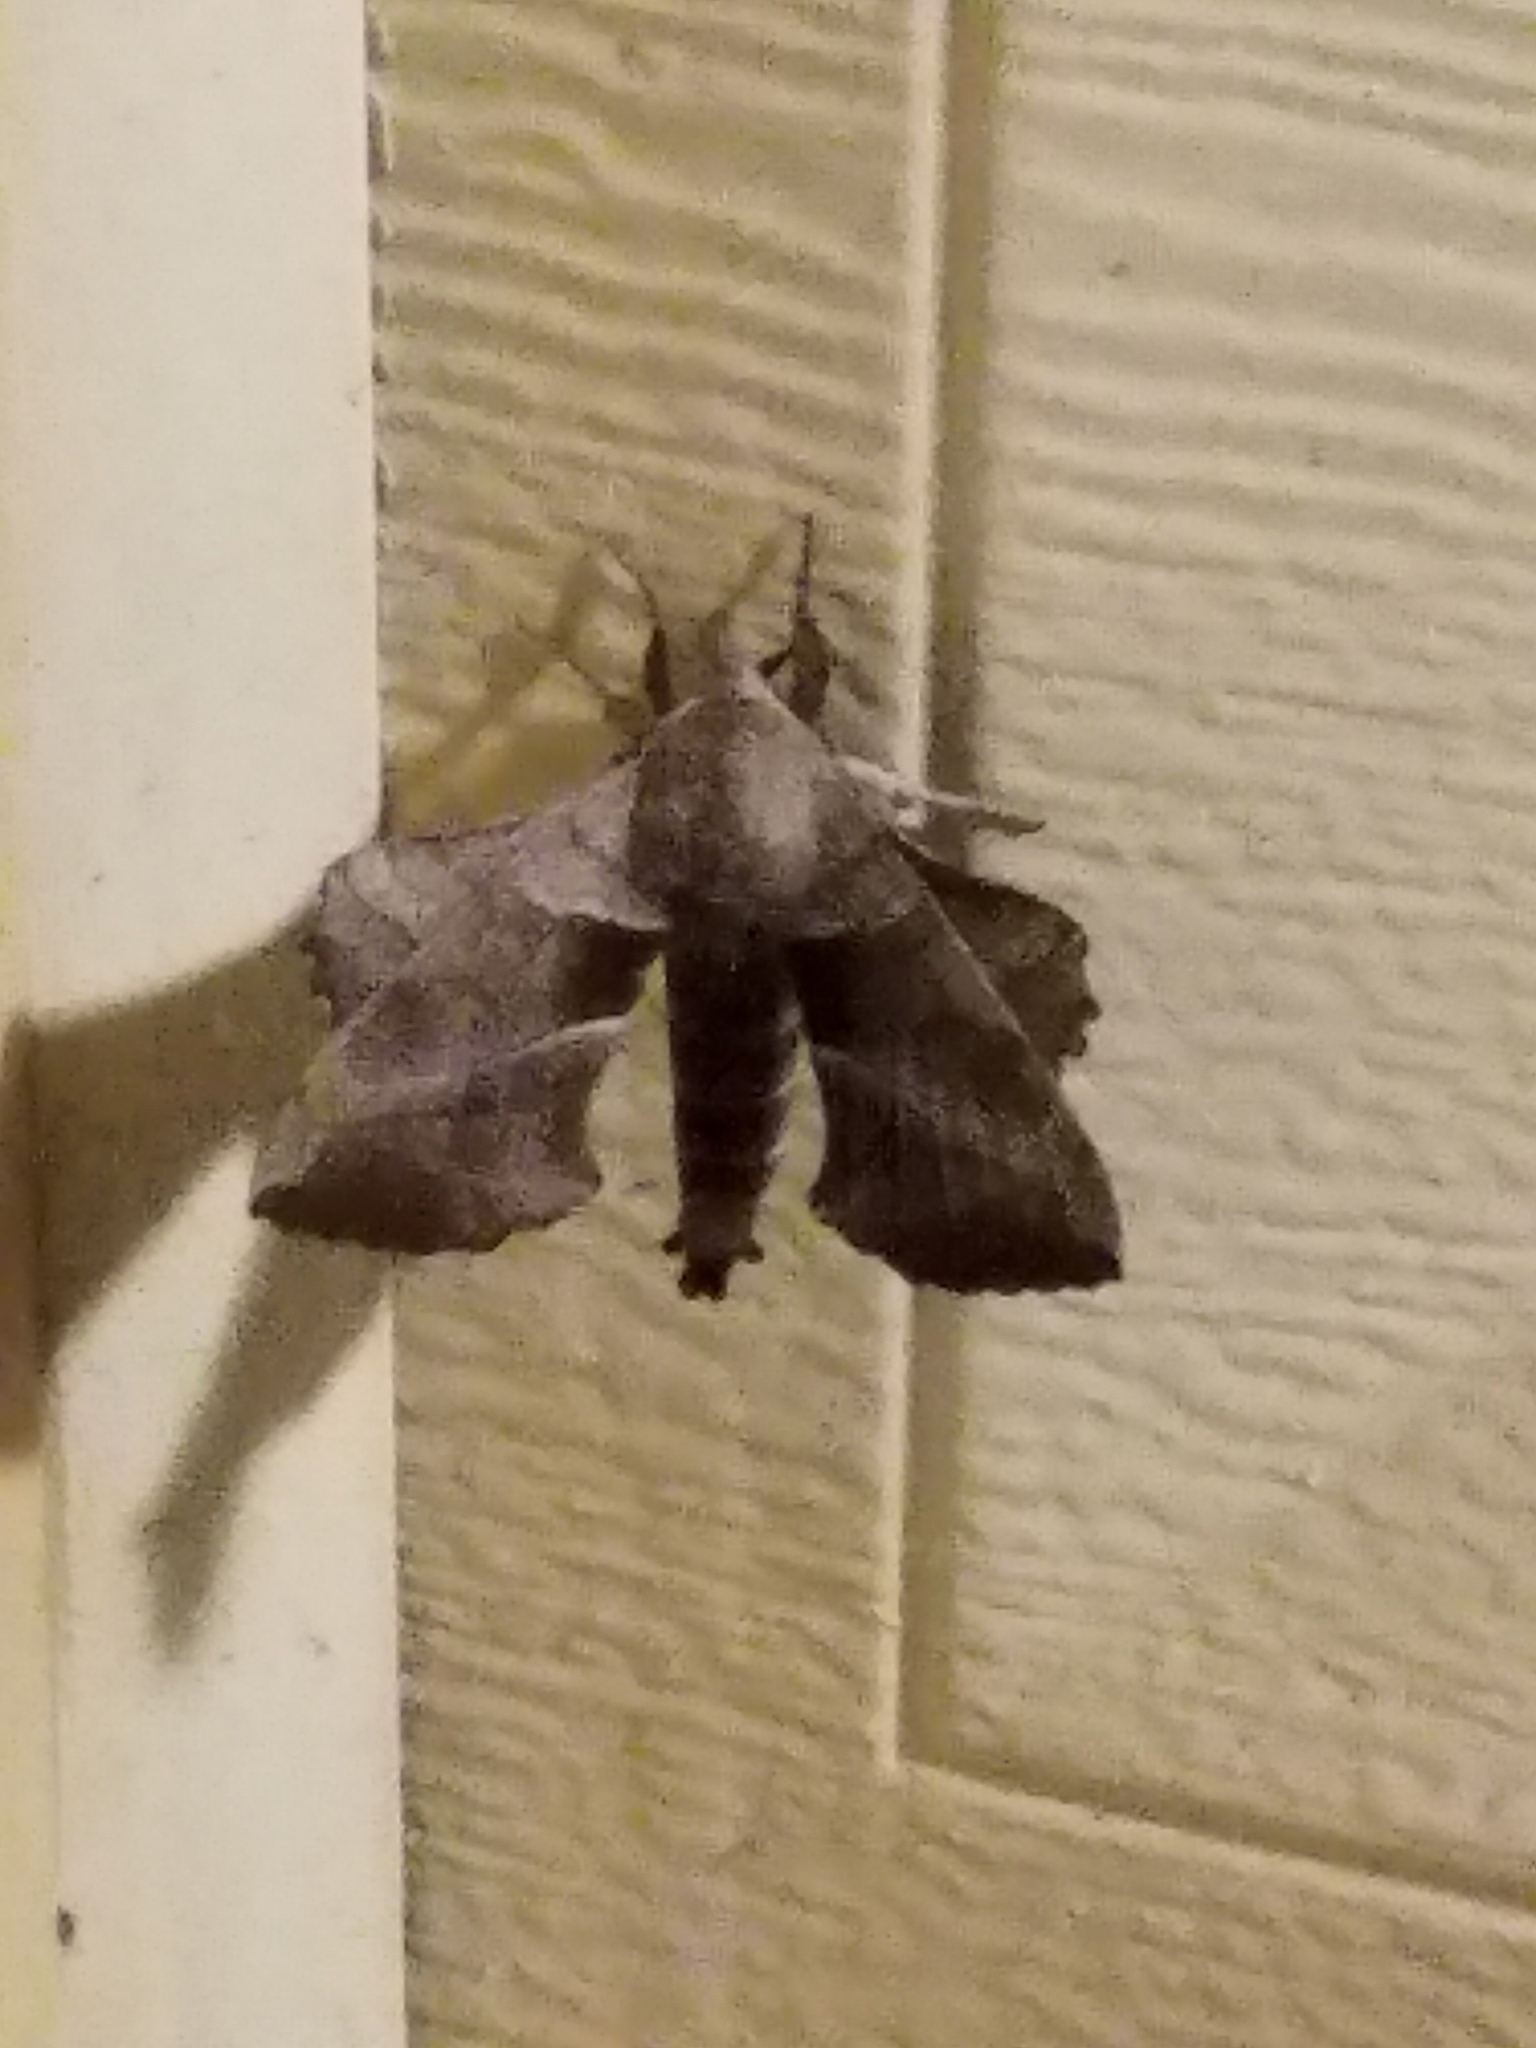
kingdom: Animalia
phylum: Arthropoda
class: Insecta
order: Lepidoptera
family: Sphingidae
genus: Amorpha
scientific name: Amorpha juglandis
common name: Walnut sphinx
